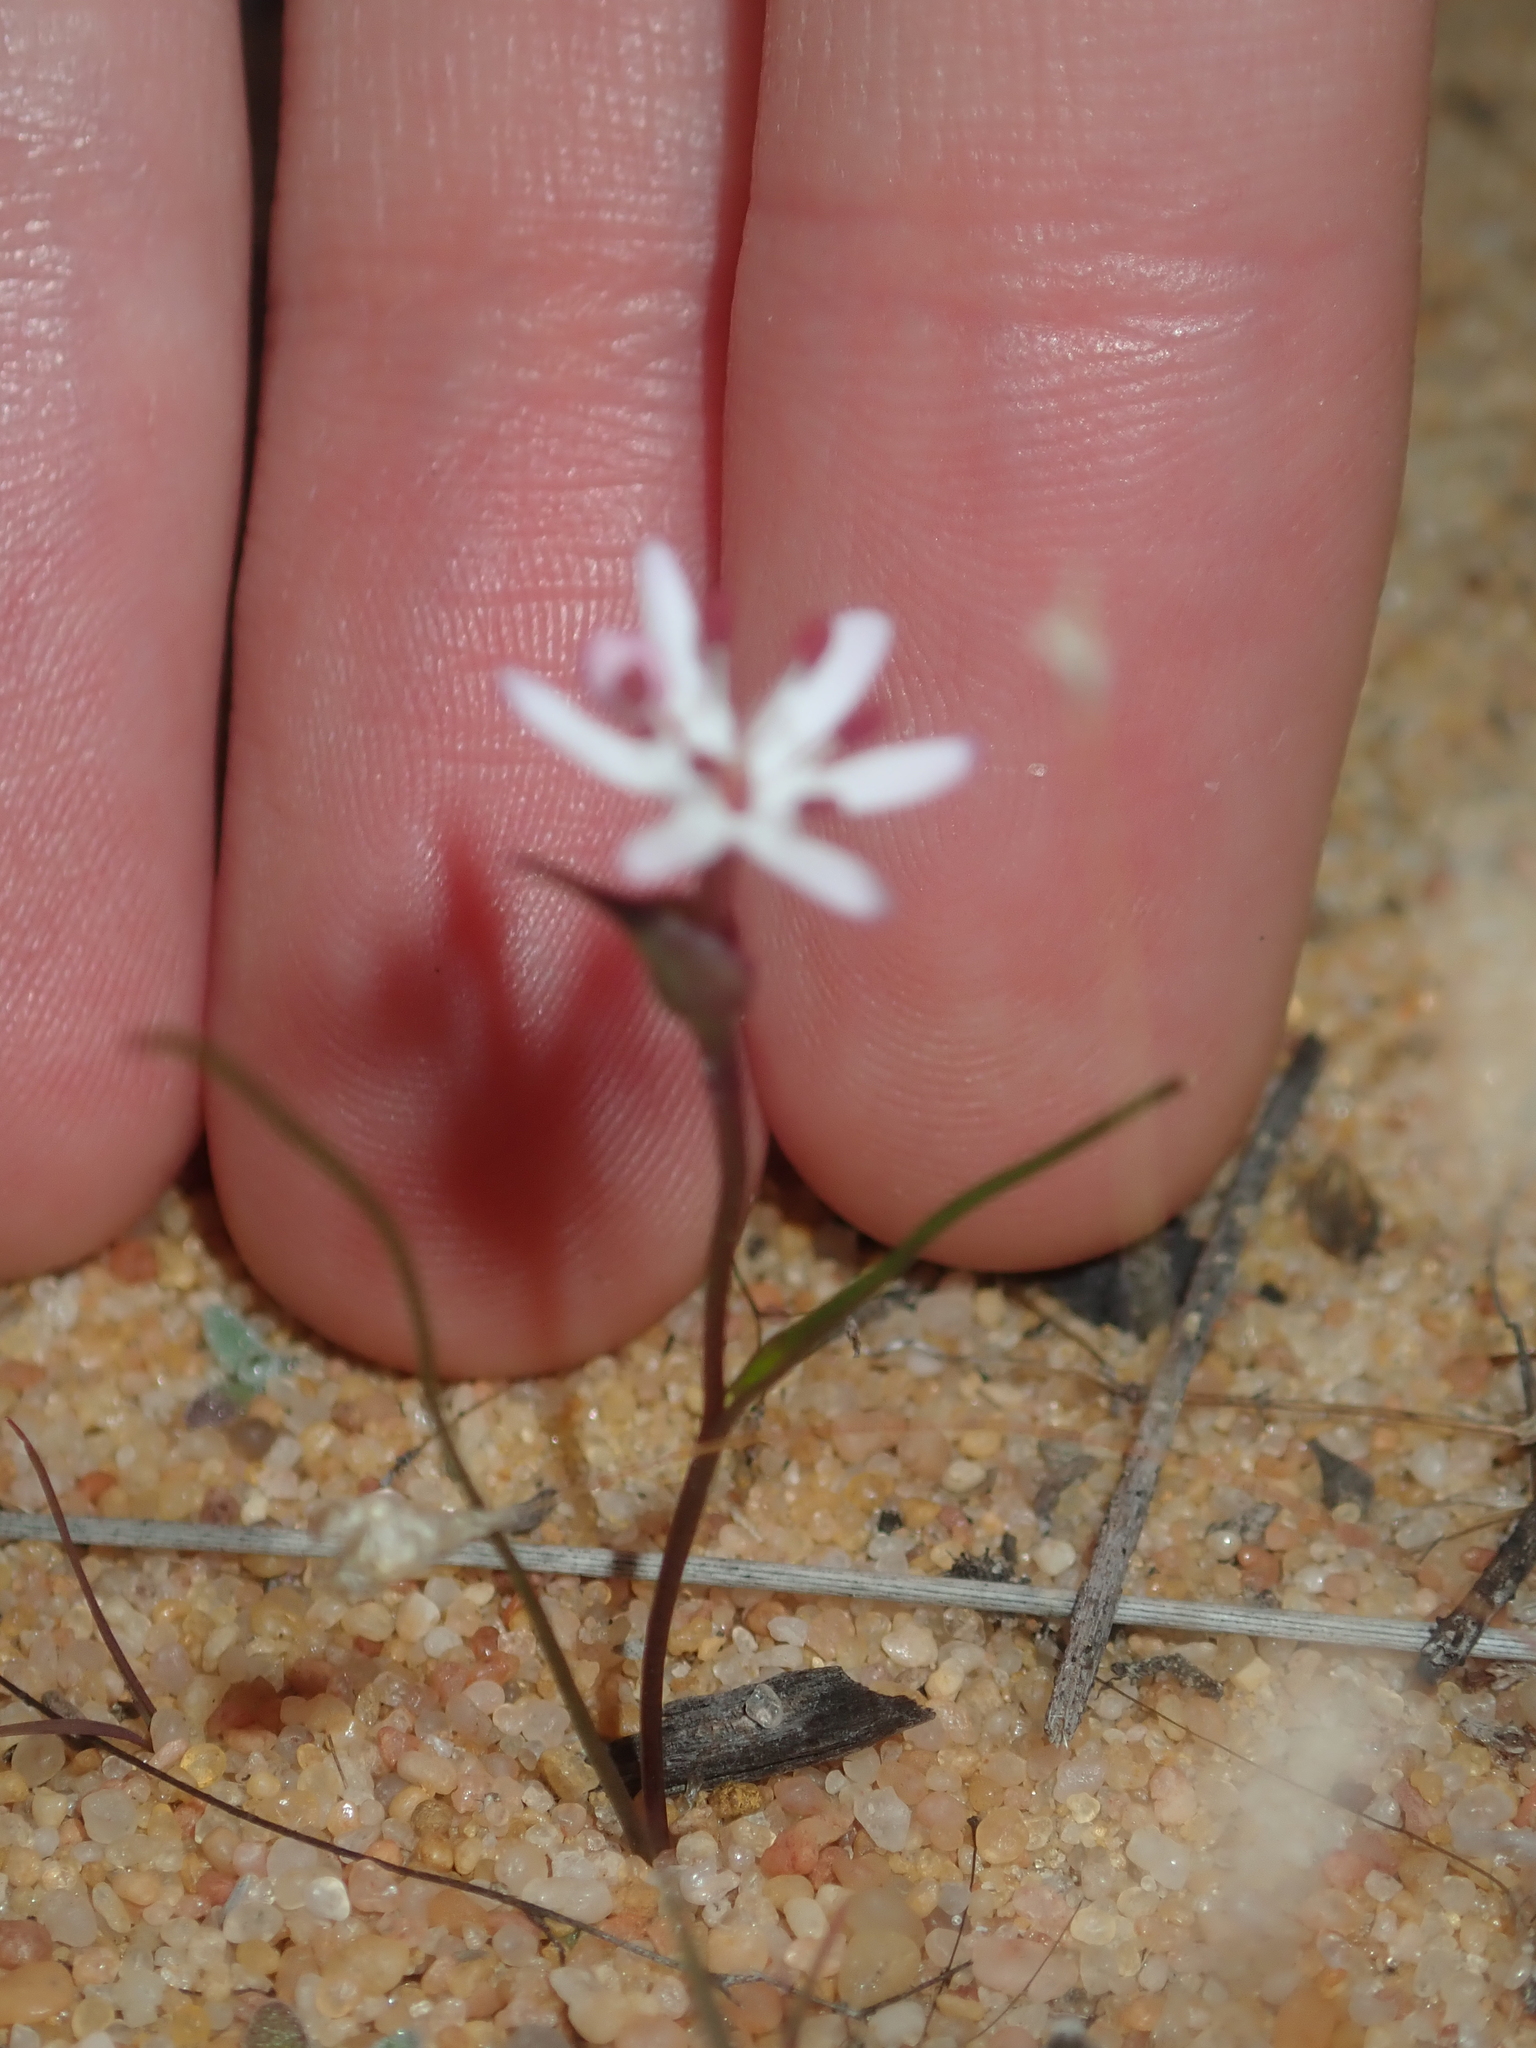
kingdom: Plantae
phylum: Tracheophyta
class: Liliopsida
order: Liliales
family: Colchicaceae
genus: Wurmbea
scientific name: Wurmbea dilatata
